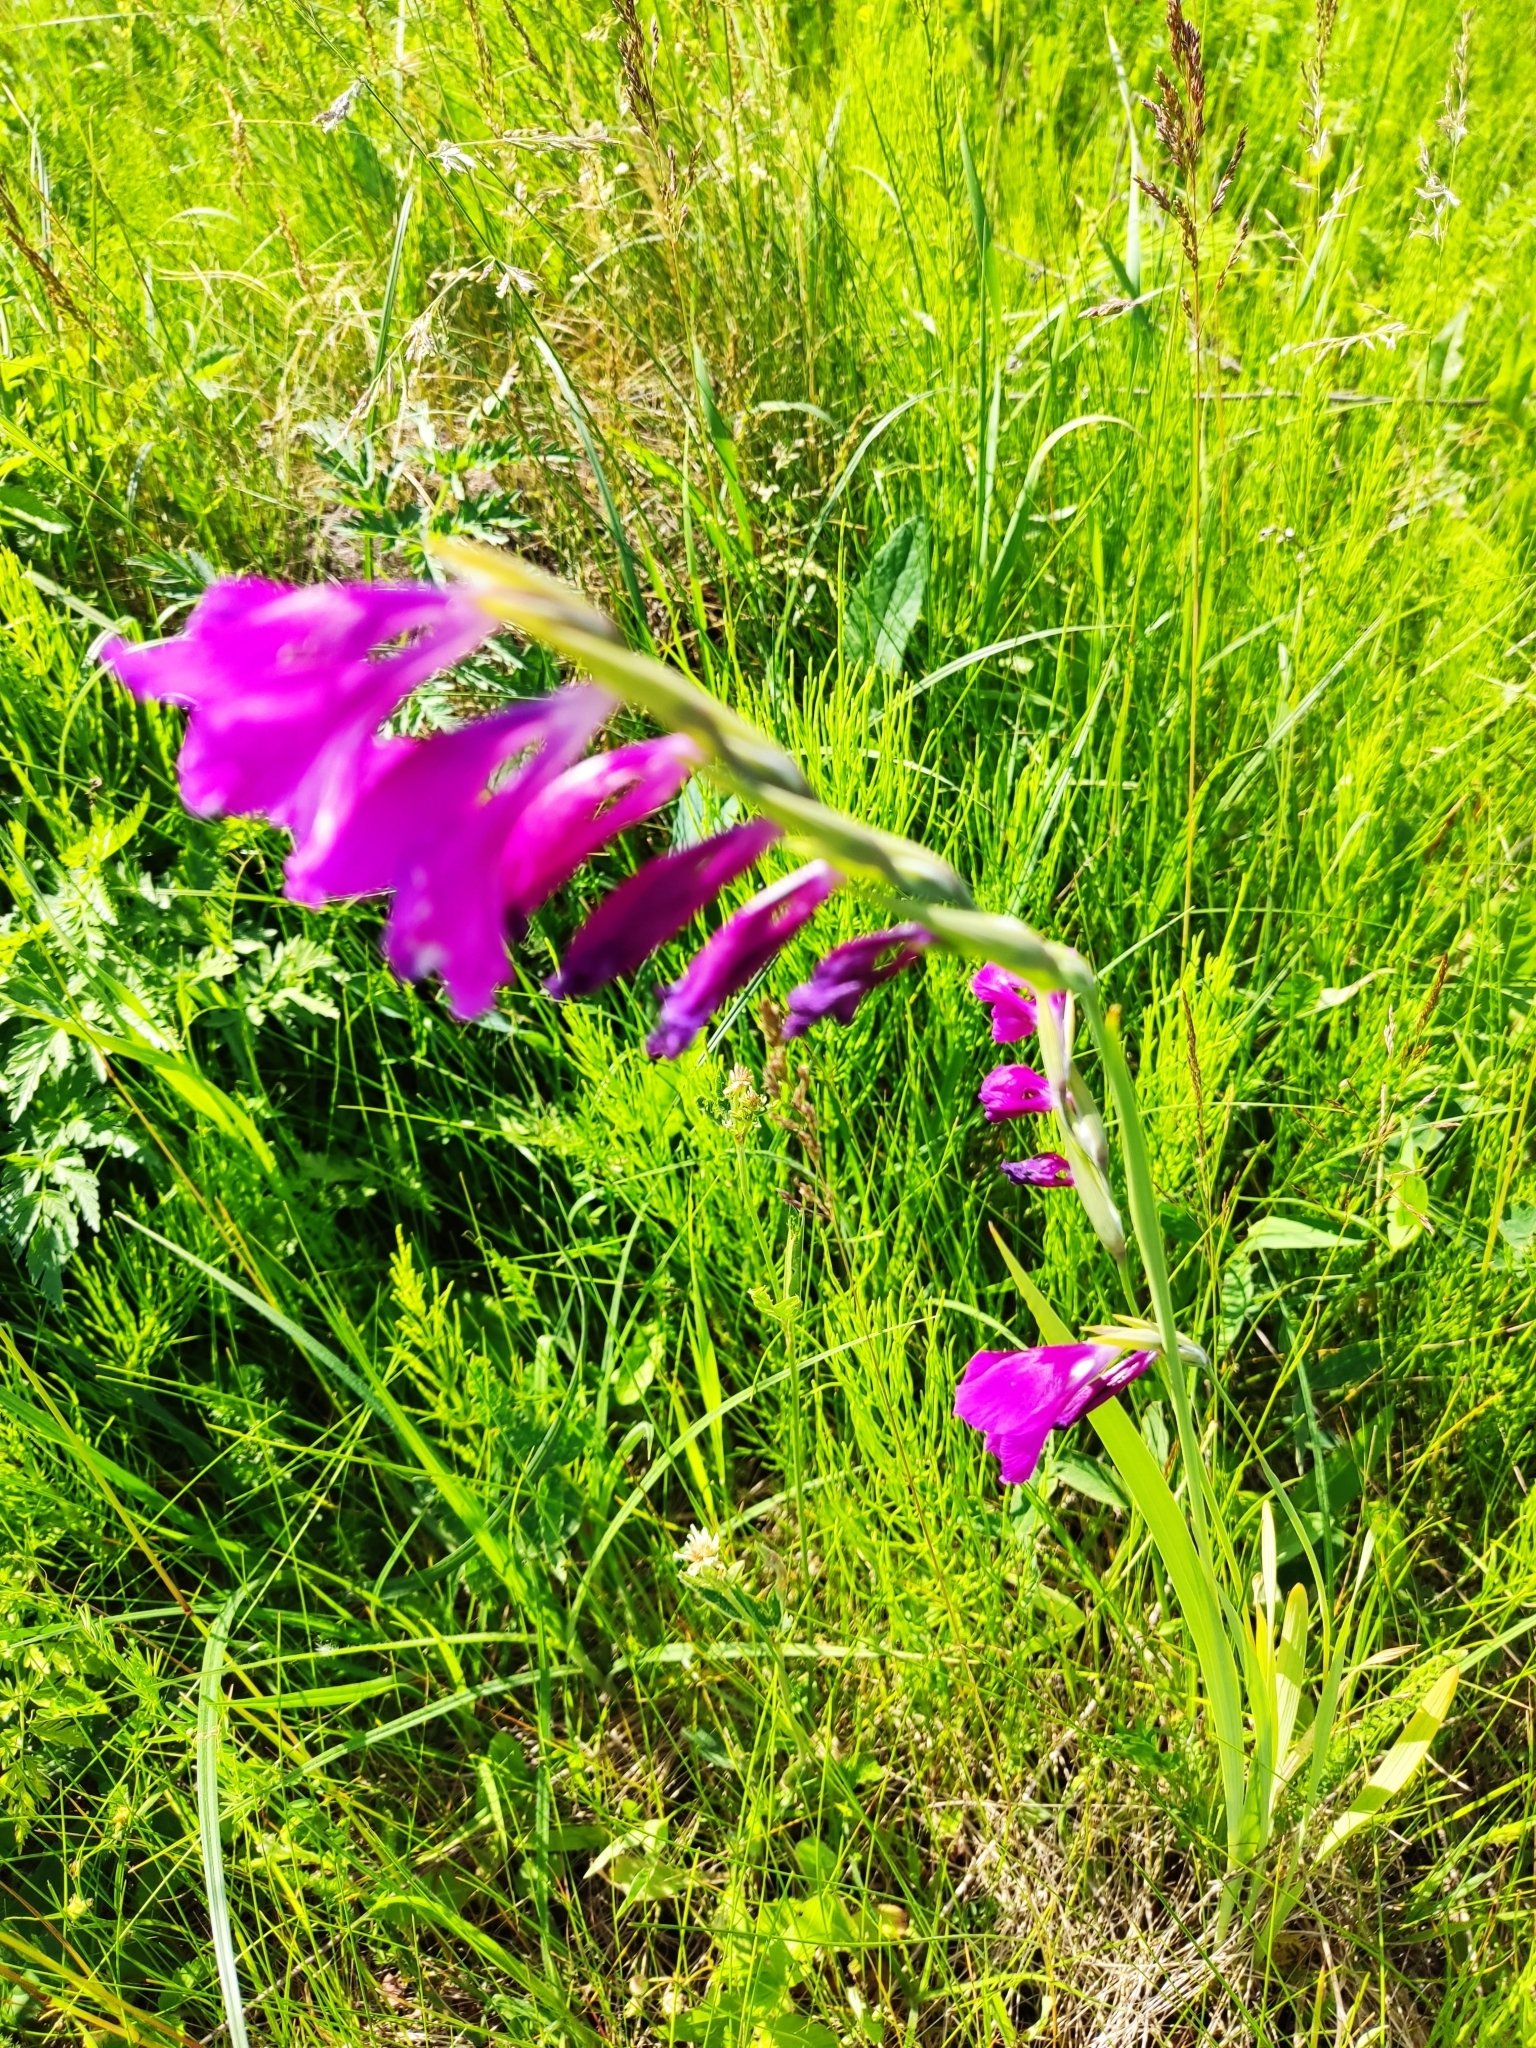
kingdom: Plantae
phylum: Tracheophyta
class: Liliopsida
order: Asparagales
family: Iridaceae
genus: Gladiolus
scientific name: Gladiolus imbricatus
